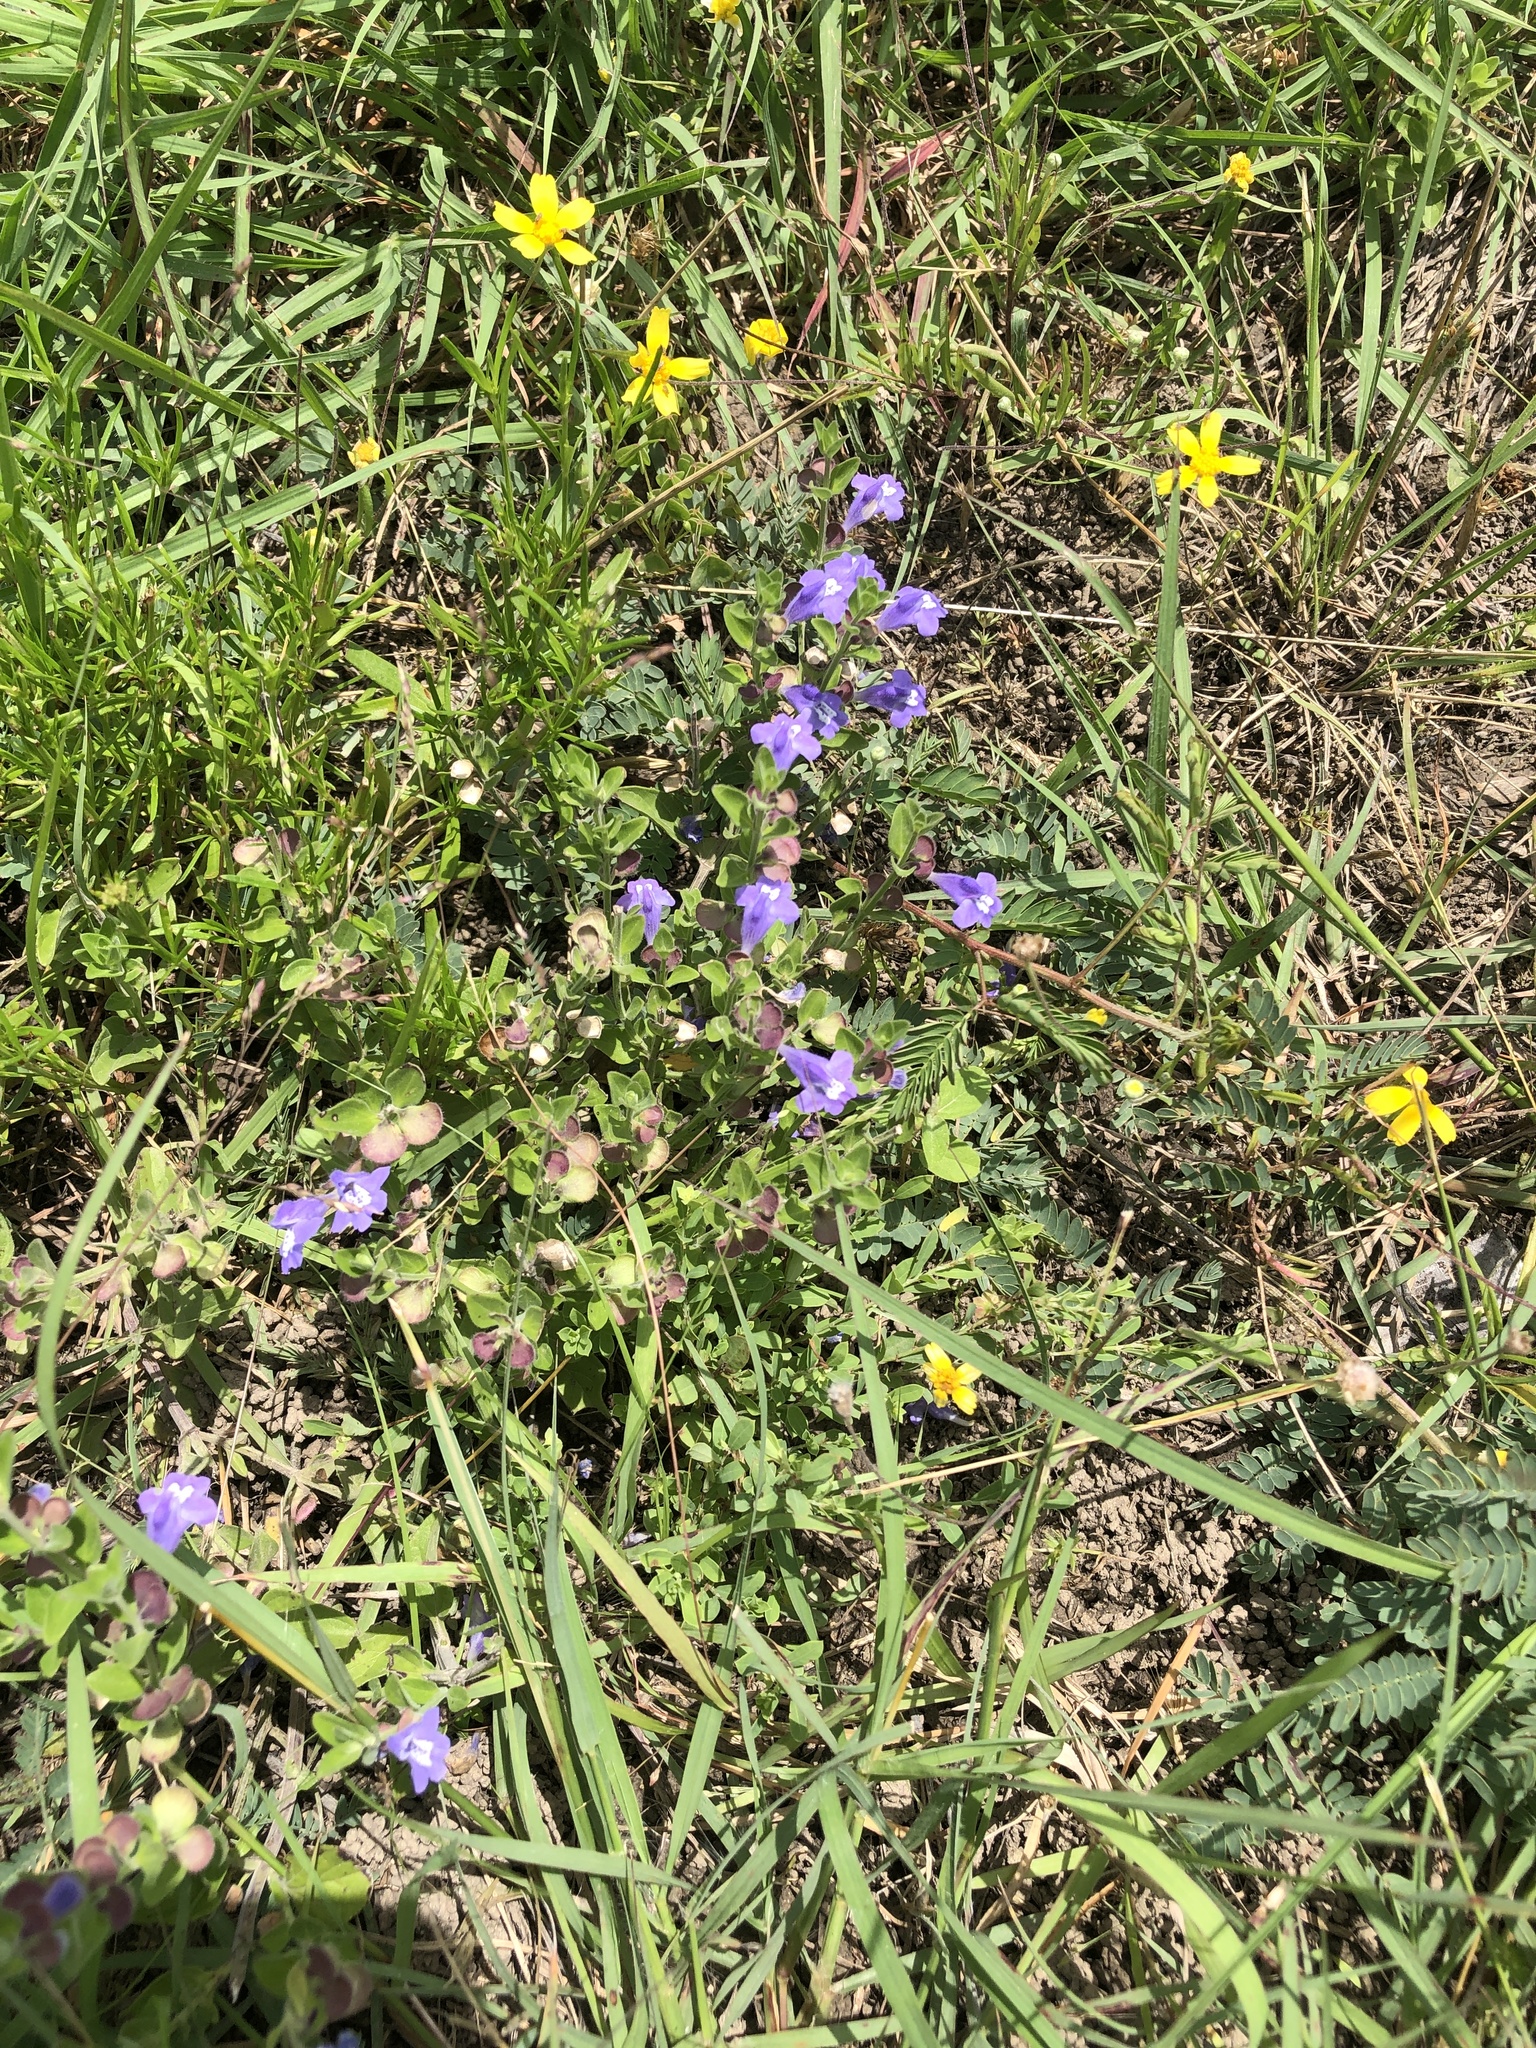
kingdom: Plantae
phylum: Tracheophyta
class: Magnoliopsida
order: Lamiales
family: Lamiaceae
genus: Scutellaria
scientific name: Scutellaria drummondii
